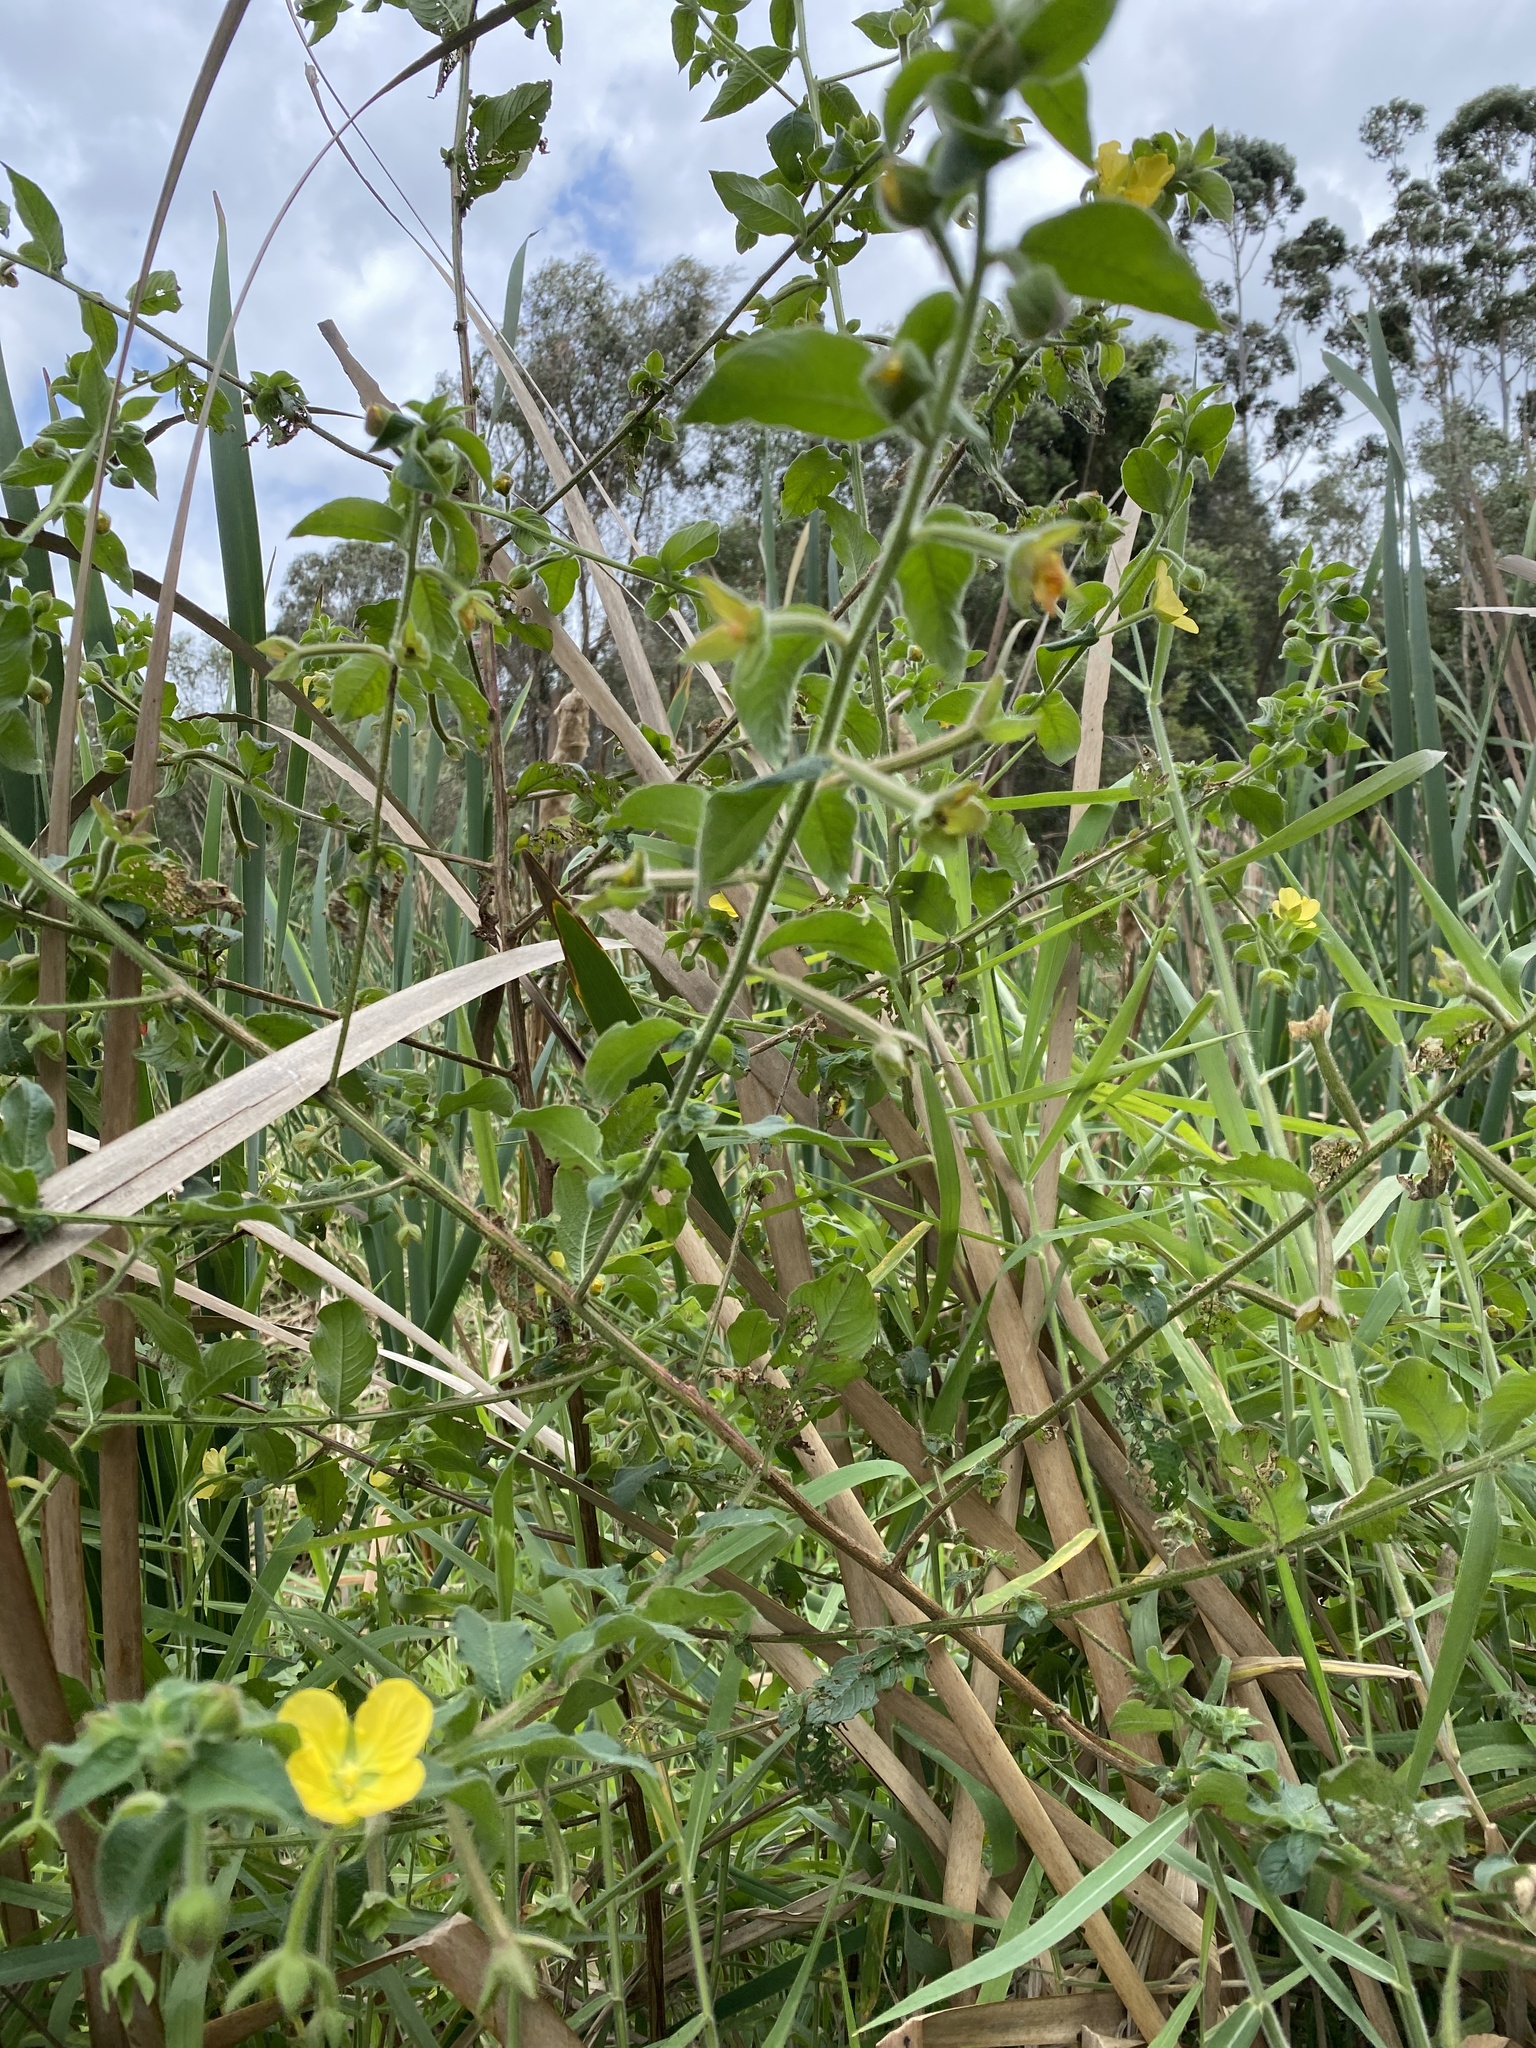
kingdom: Plantae
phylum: Tracheophyta
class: Magnoliopsida
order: Myrtales
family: Onagraceae
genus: Ludwigia
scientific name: Ludwigia octovalvis
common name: Water-primrose
